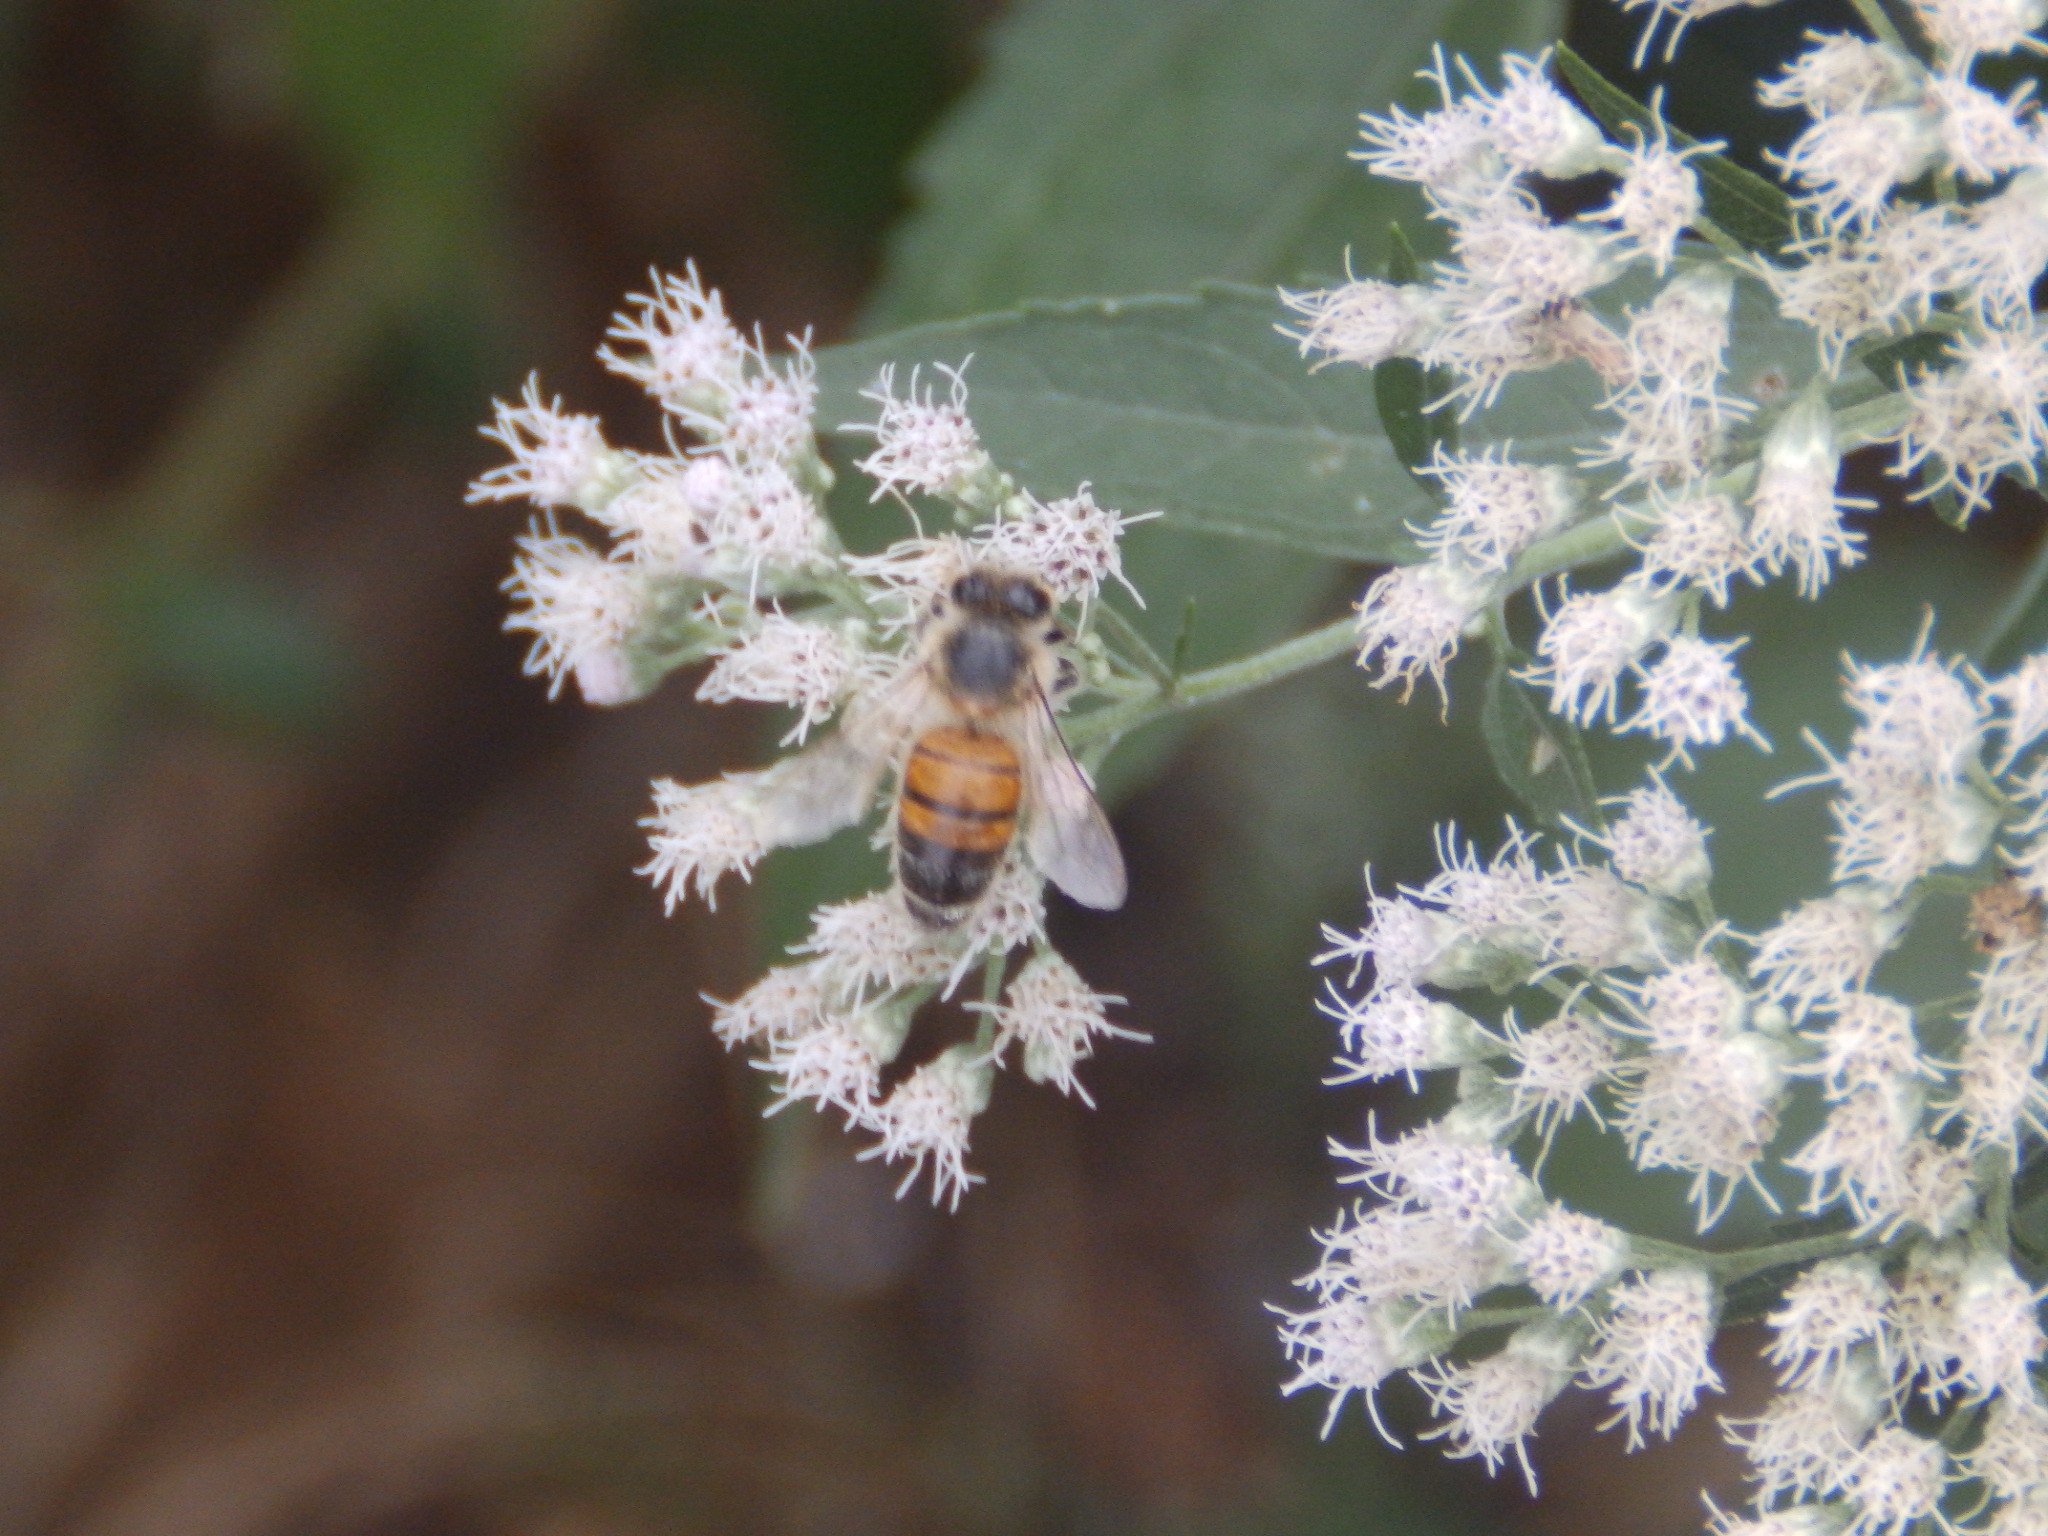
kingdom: Animalia
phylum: Arthropoda
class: Insecta
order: Hymenoptera
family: Apidae
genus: Apis
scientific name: Apis mellifera
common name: Honey bee
